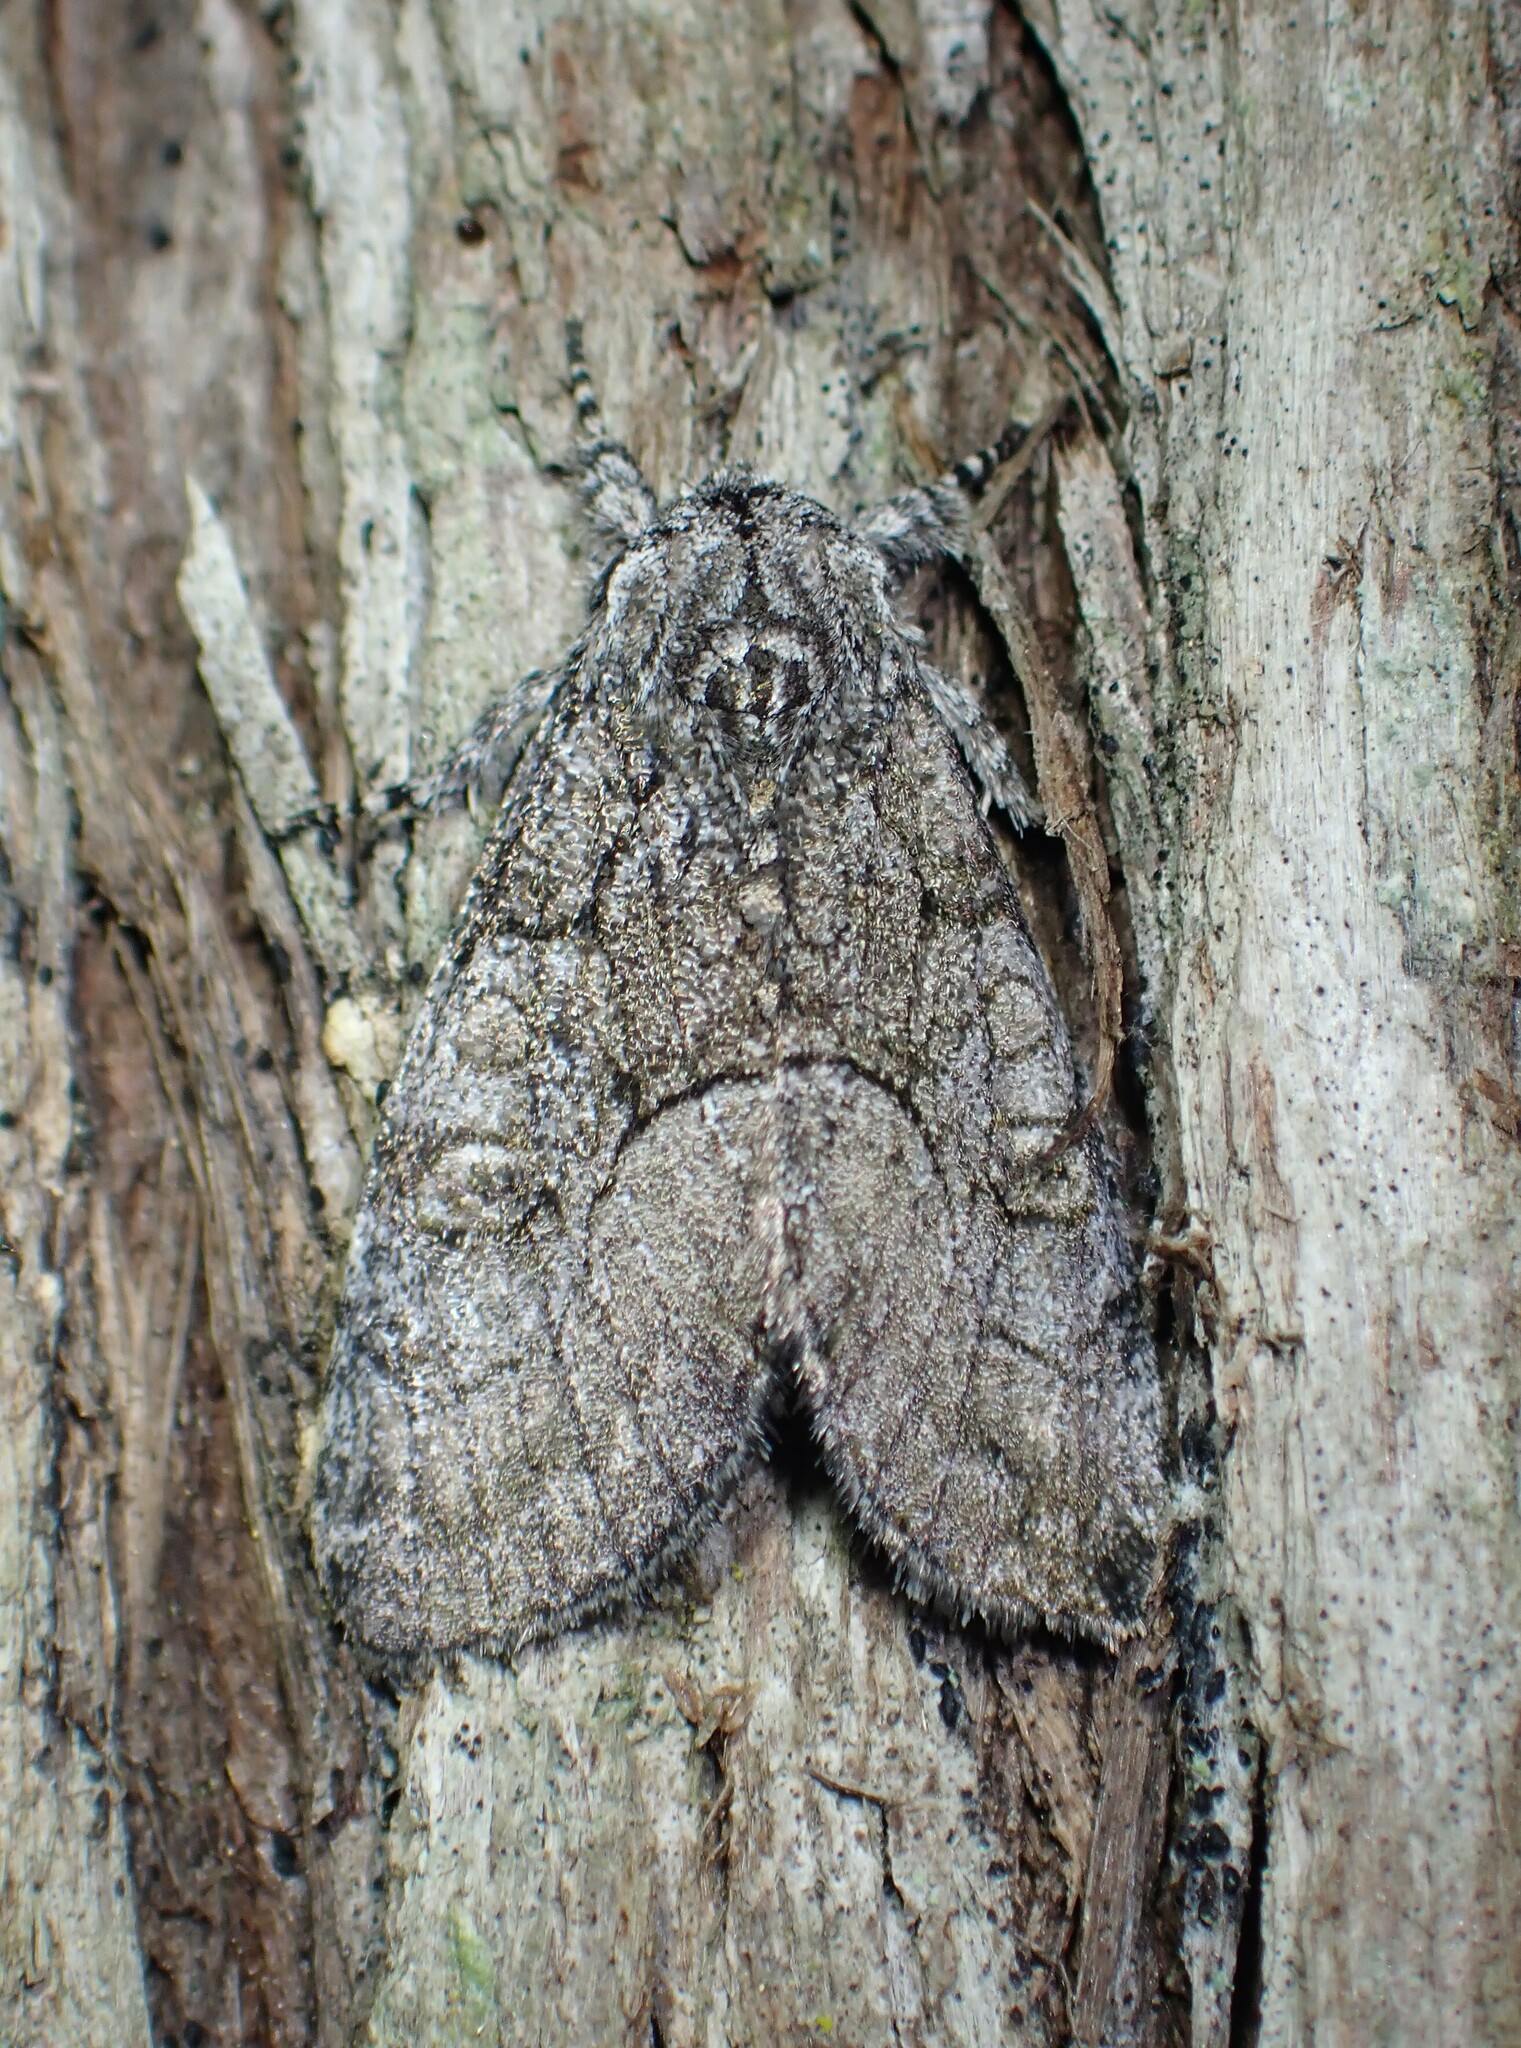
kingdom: Animalia
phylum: Arthropoda
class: Insecta
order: Lepidoptera
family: Noctuidae
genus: Raphia
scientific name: Raphia frater
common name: Brother
